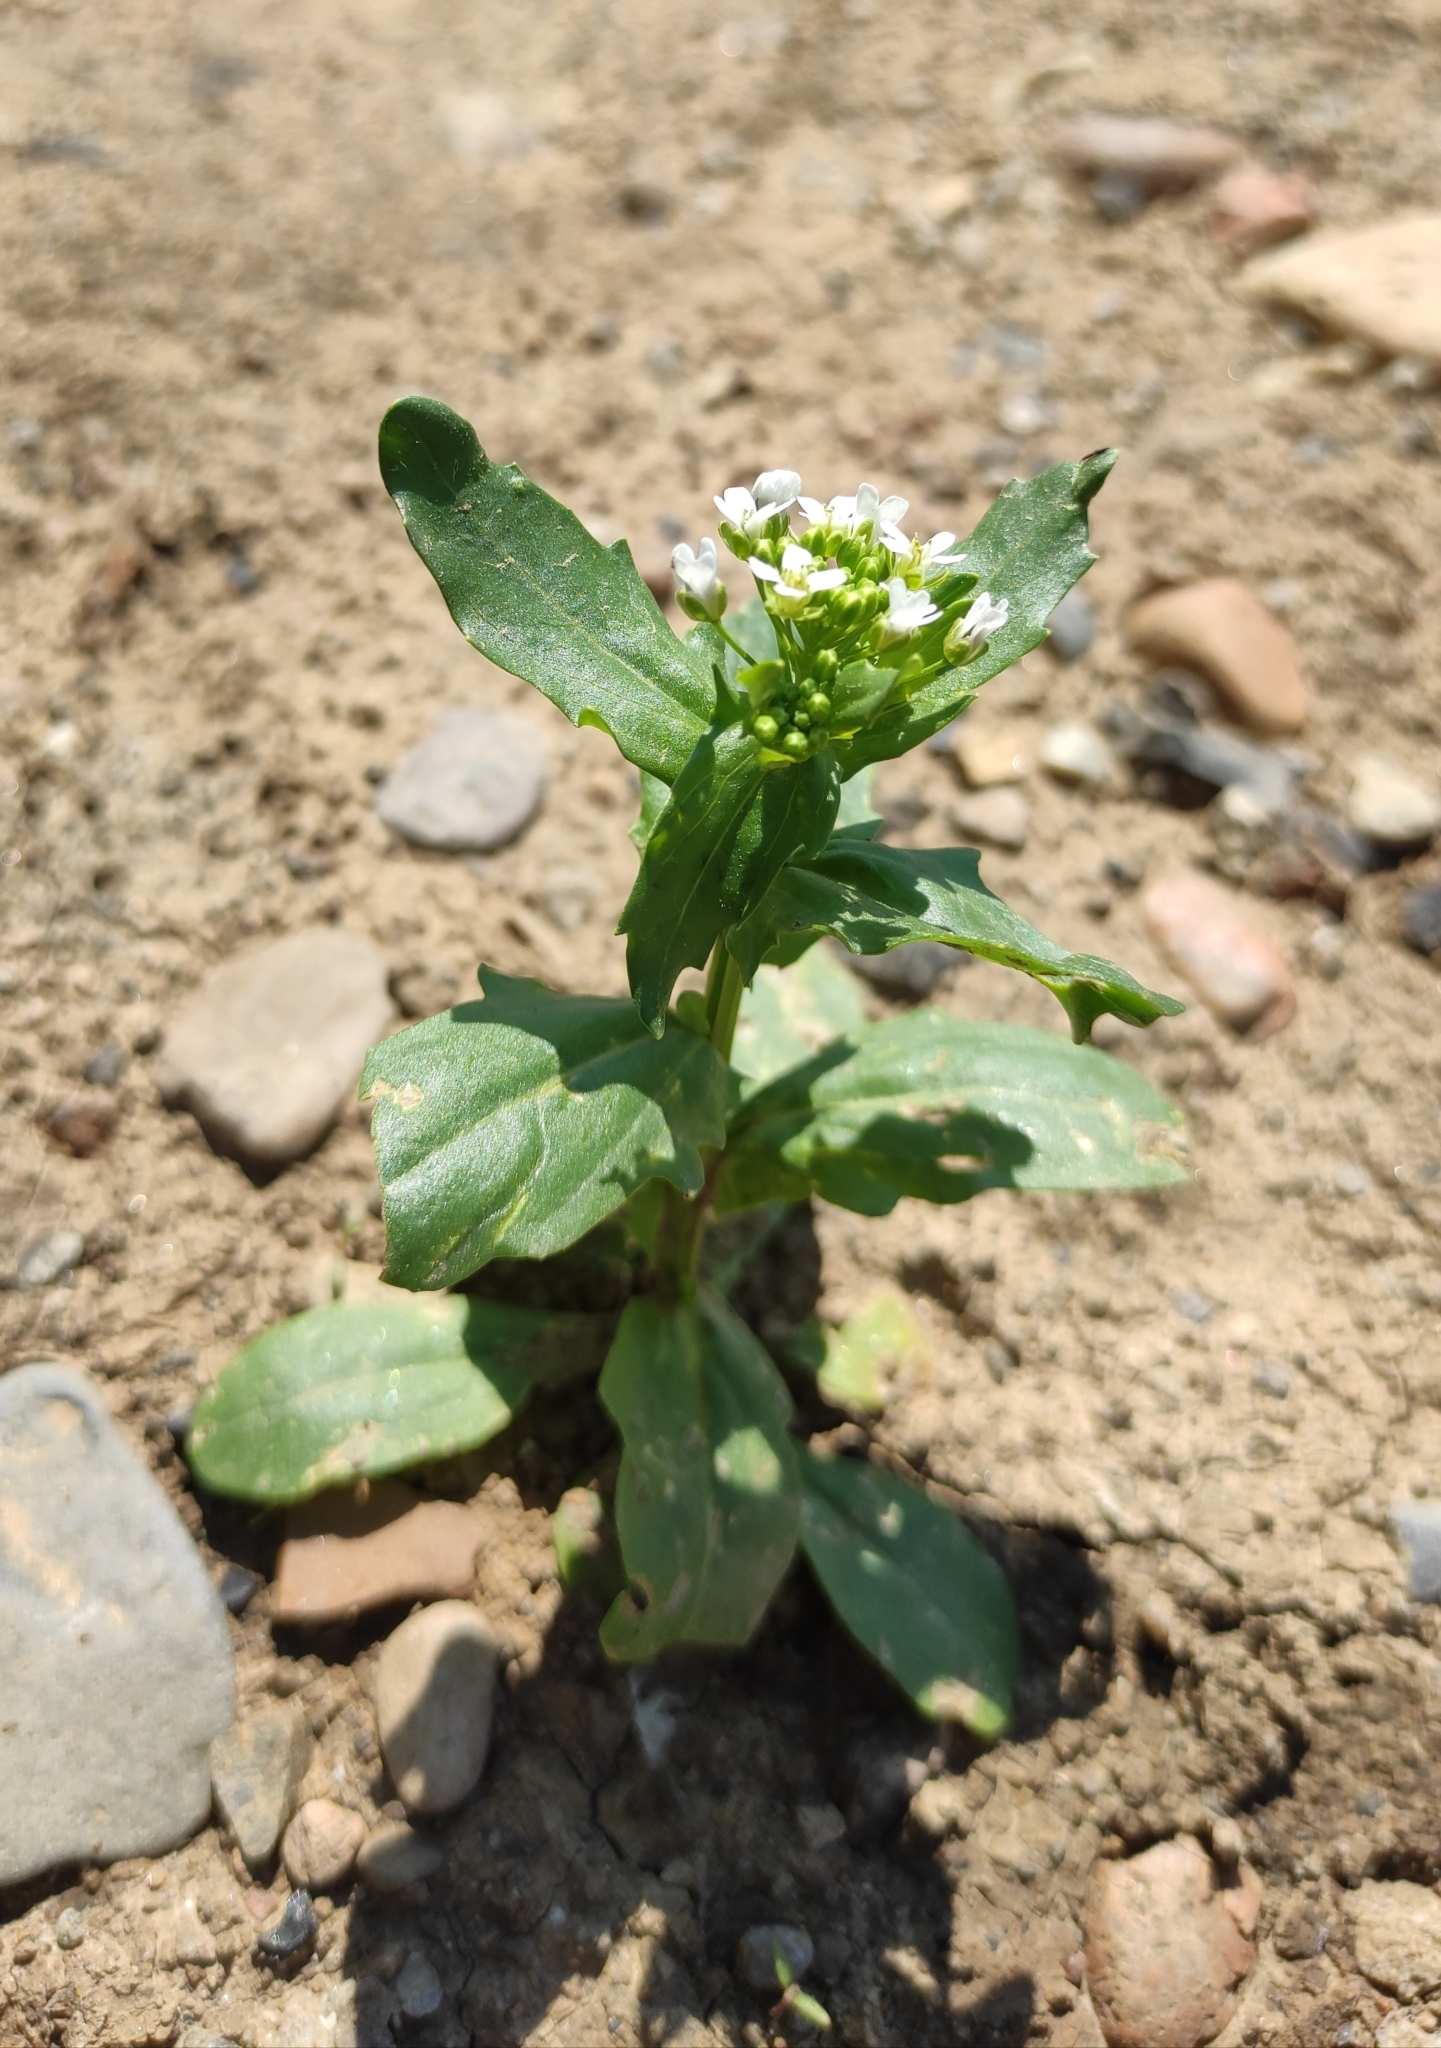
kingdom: Plantae
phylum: Tracheophyta
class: Magnoliopsida
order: Brassicales
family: Brassicaceae
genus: Thlaspi
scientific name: Thlaspi arvense
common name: Field pennycress
